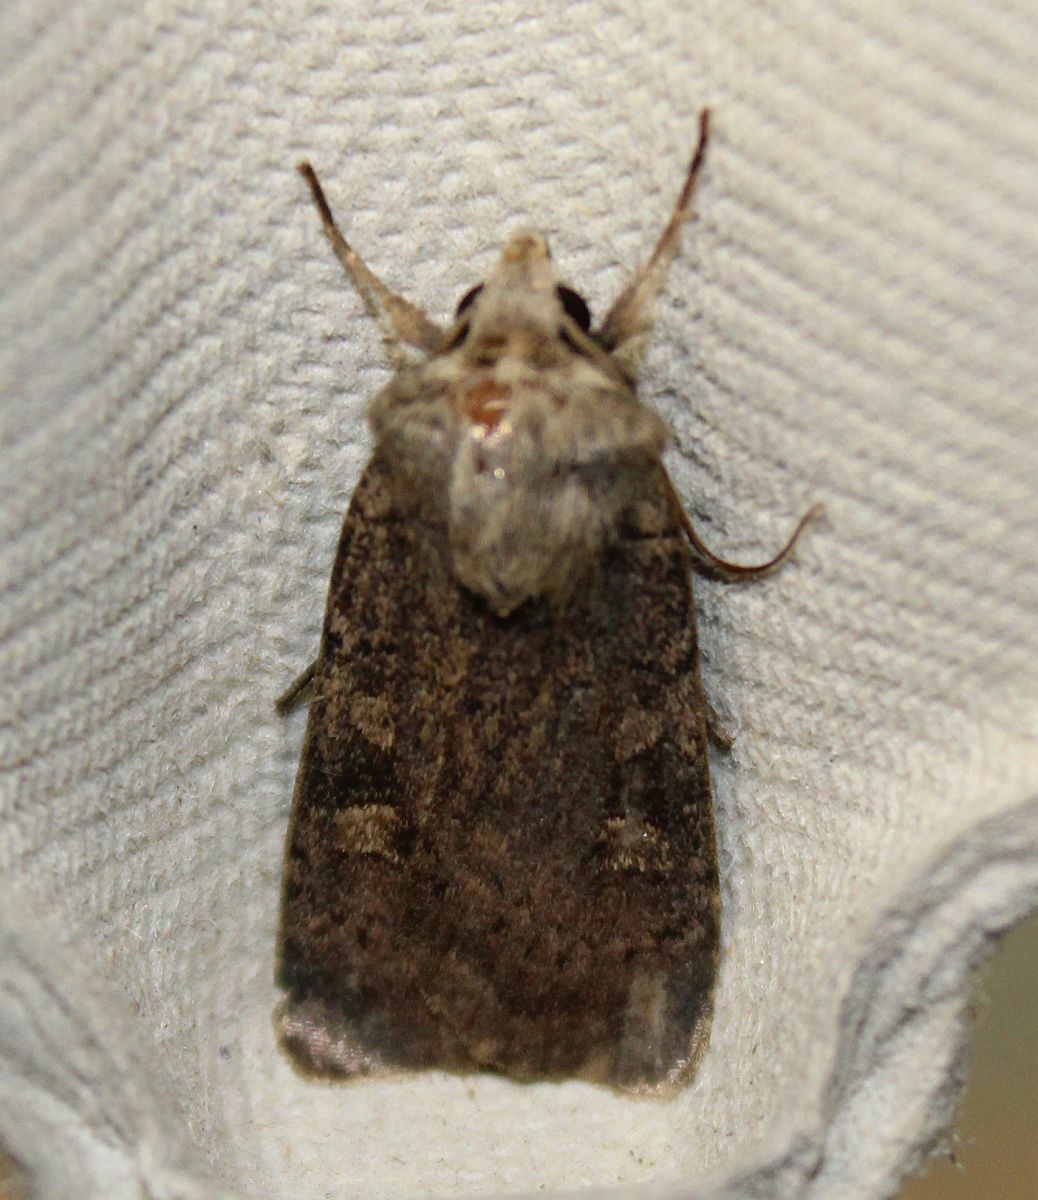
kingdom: Animalia
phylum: Arthropoda
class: Insecta
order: Lepidoptera
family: Noctuidae
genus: Xestia
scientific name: Xestia xanthographa
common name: Square-spot rustic
